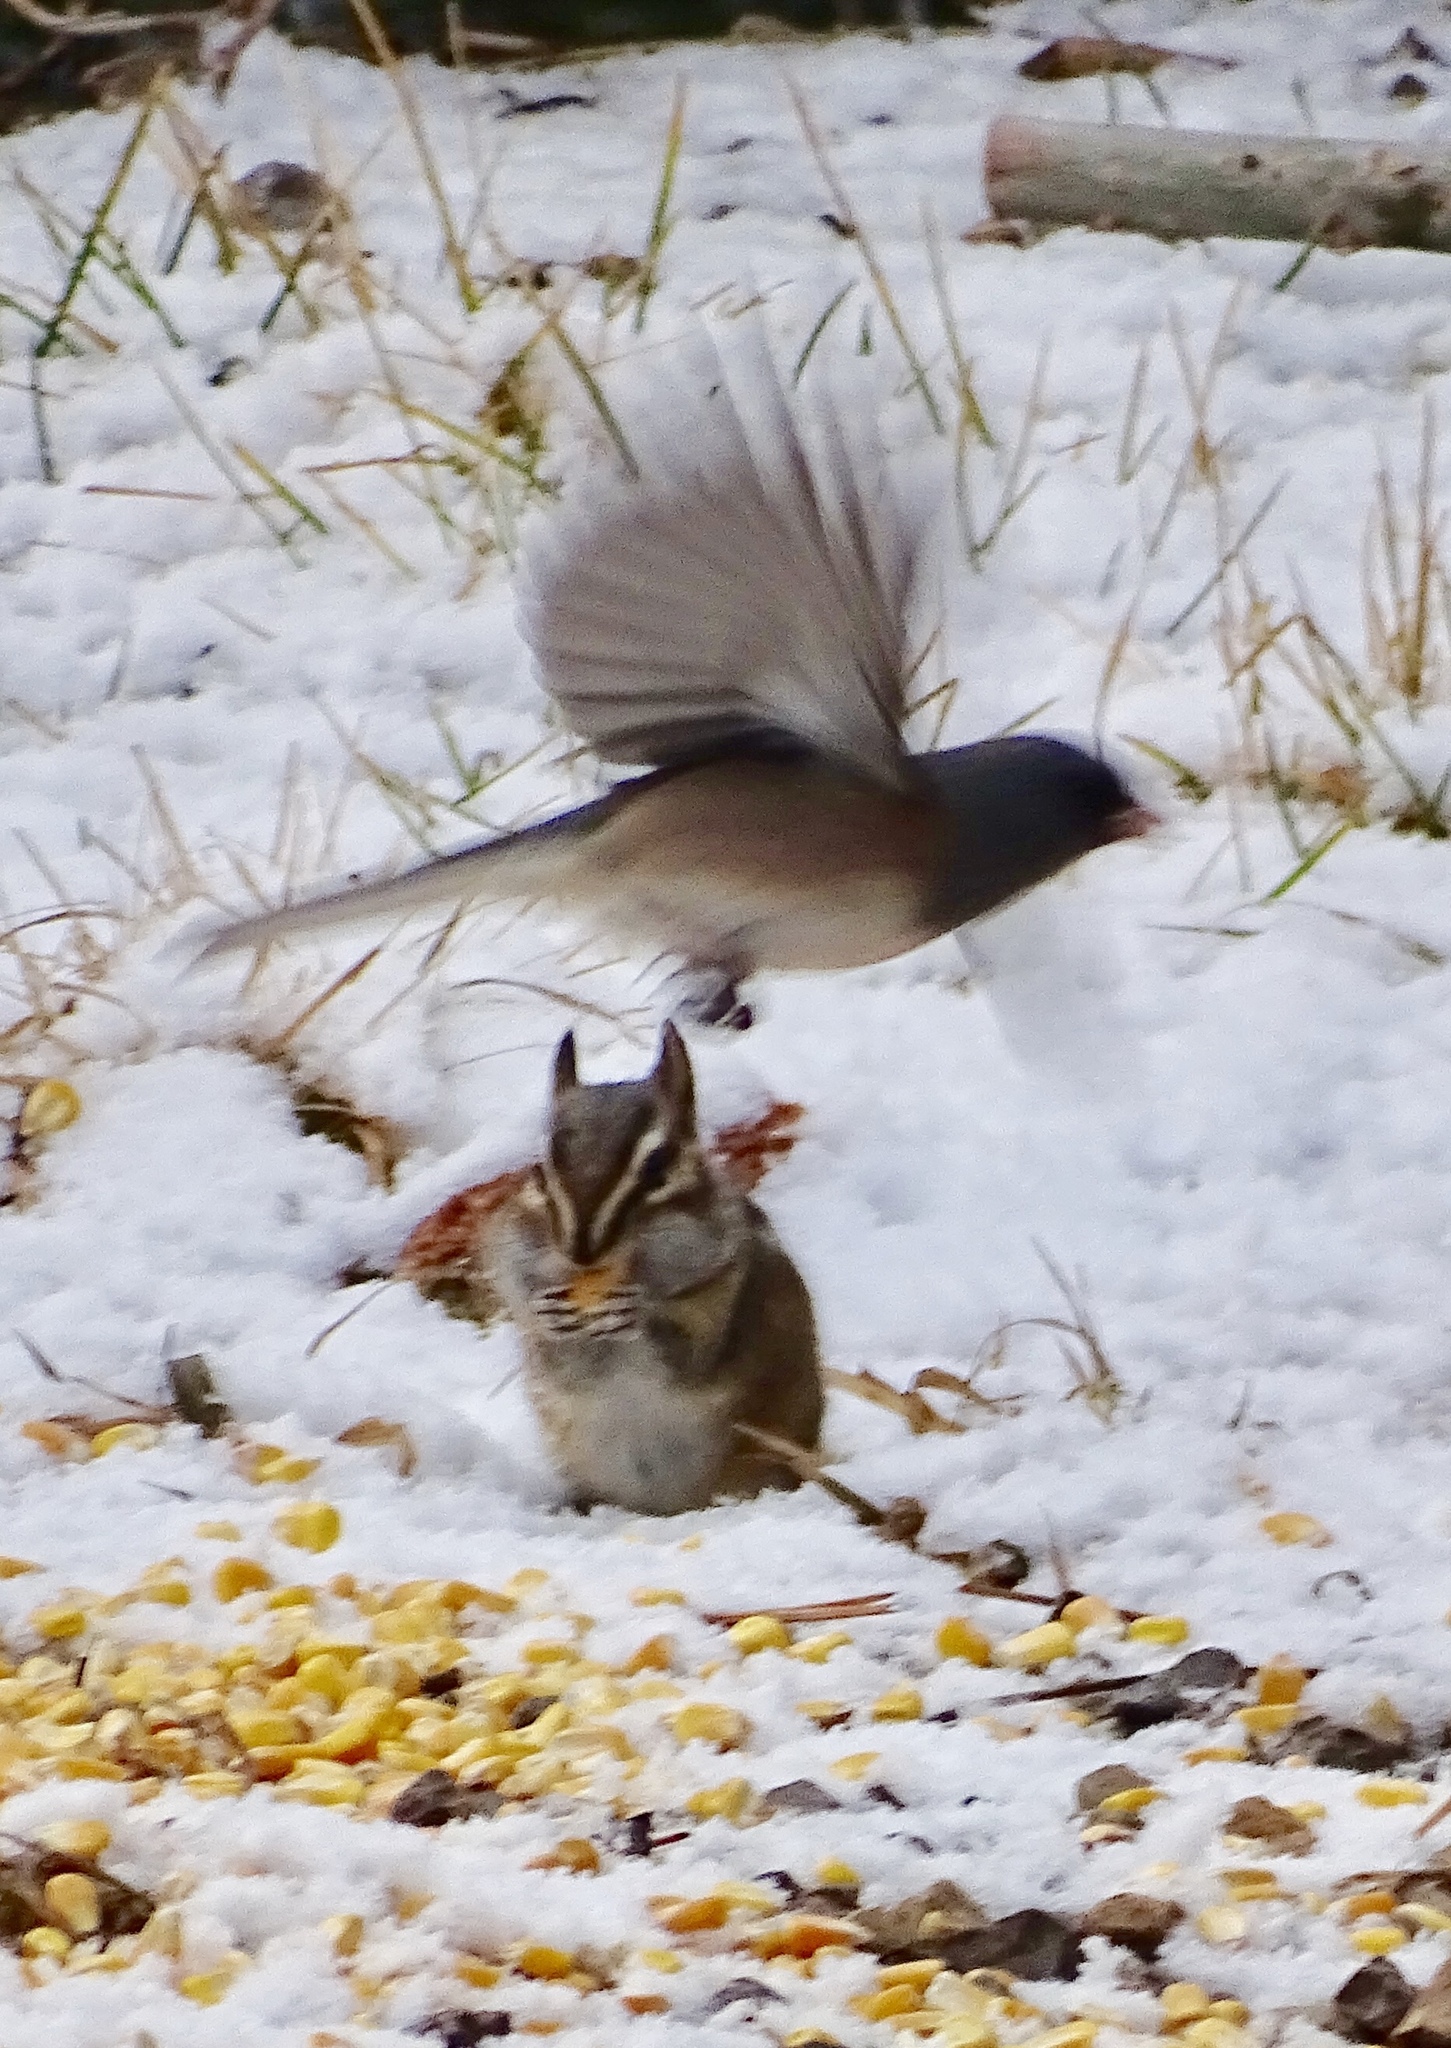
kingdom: Animalia
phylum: Chordata
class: Aves
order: Passeriformes
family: Passerellidae
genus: Junco
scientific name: Junco hyemalis
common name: Dark-eyed junco
